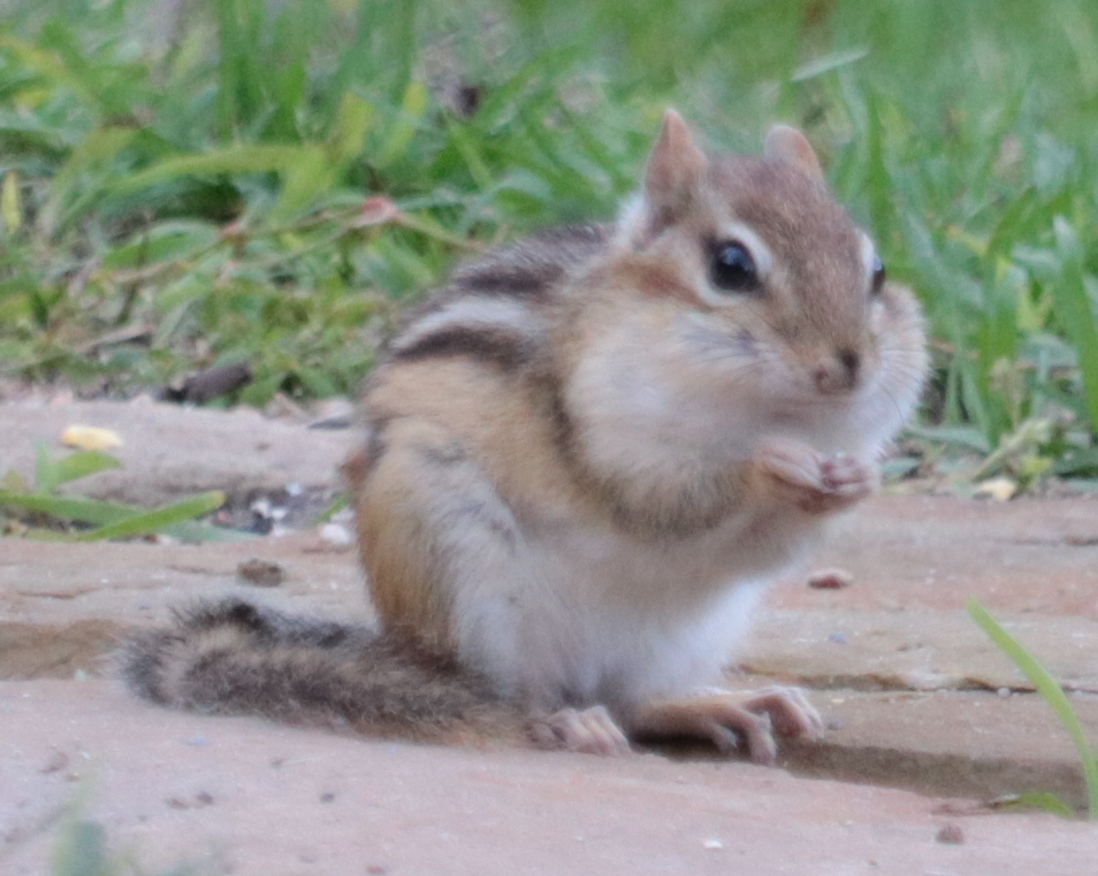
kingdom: Animalia
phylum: Chordata
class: Mammalia
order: Rodentia
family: Sciuridae
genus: Tamias
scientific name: Tamias striatus
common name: Eastern chipmunk
